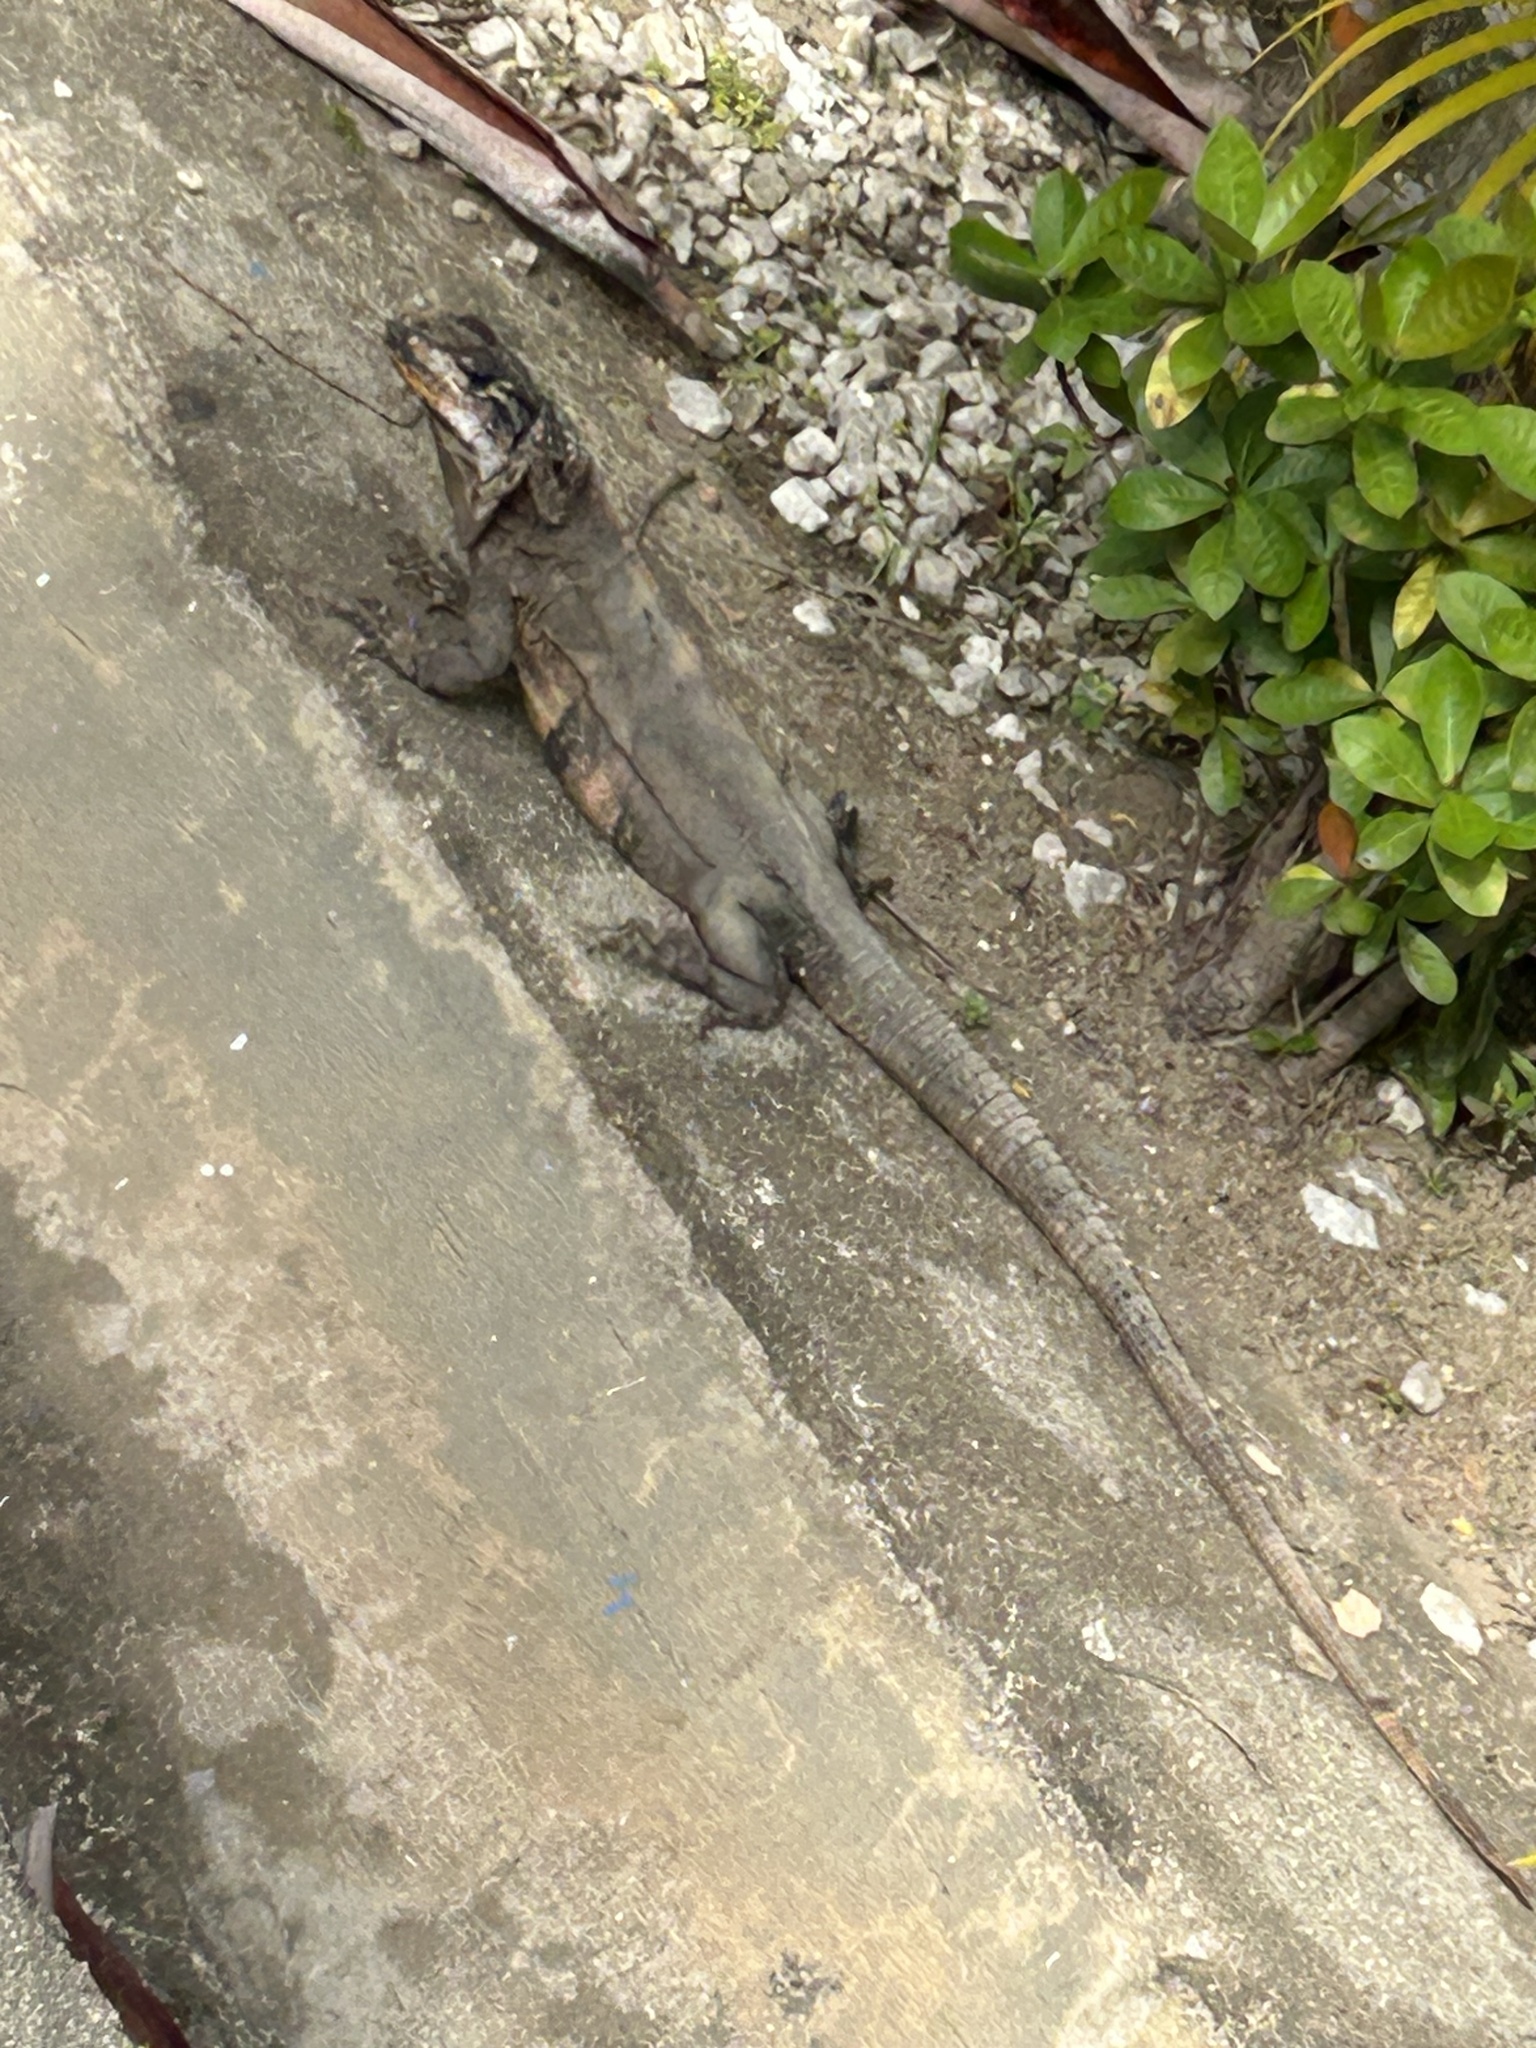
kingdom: Animalia
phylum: Chordata
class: Squamata
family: Iguanidae
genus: Ctenosaura
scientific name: Ctenosaura similis
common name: Black spiny-tailed iguana
